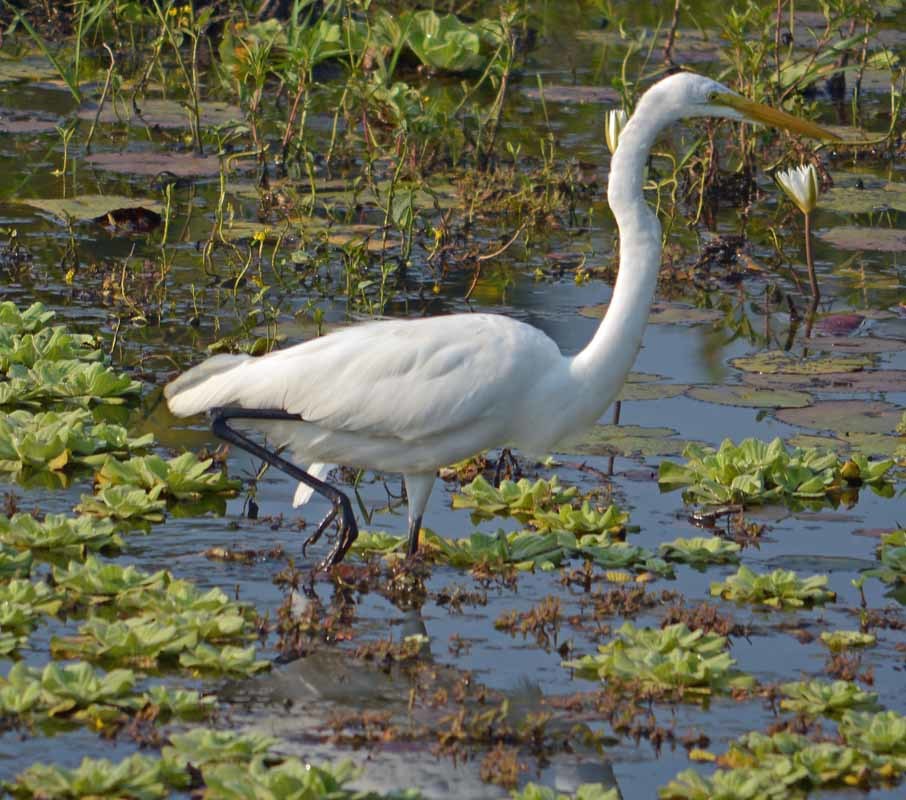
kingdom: Animalia
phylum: Chordata
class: Aves
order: Pelecaniformes
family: Ardeidae
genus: Ardea
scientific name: Ardea alba
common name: Great egret
